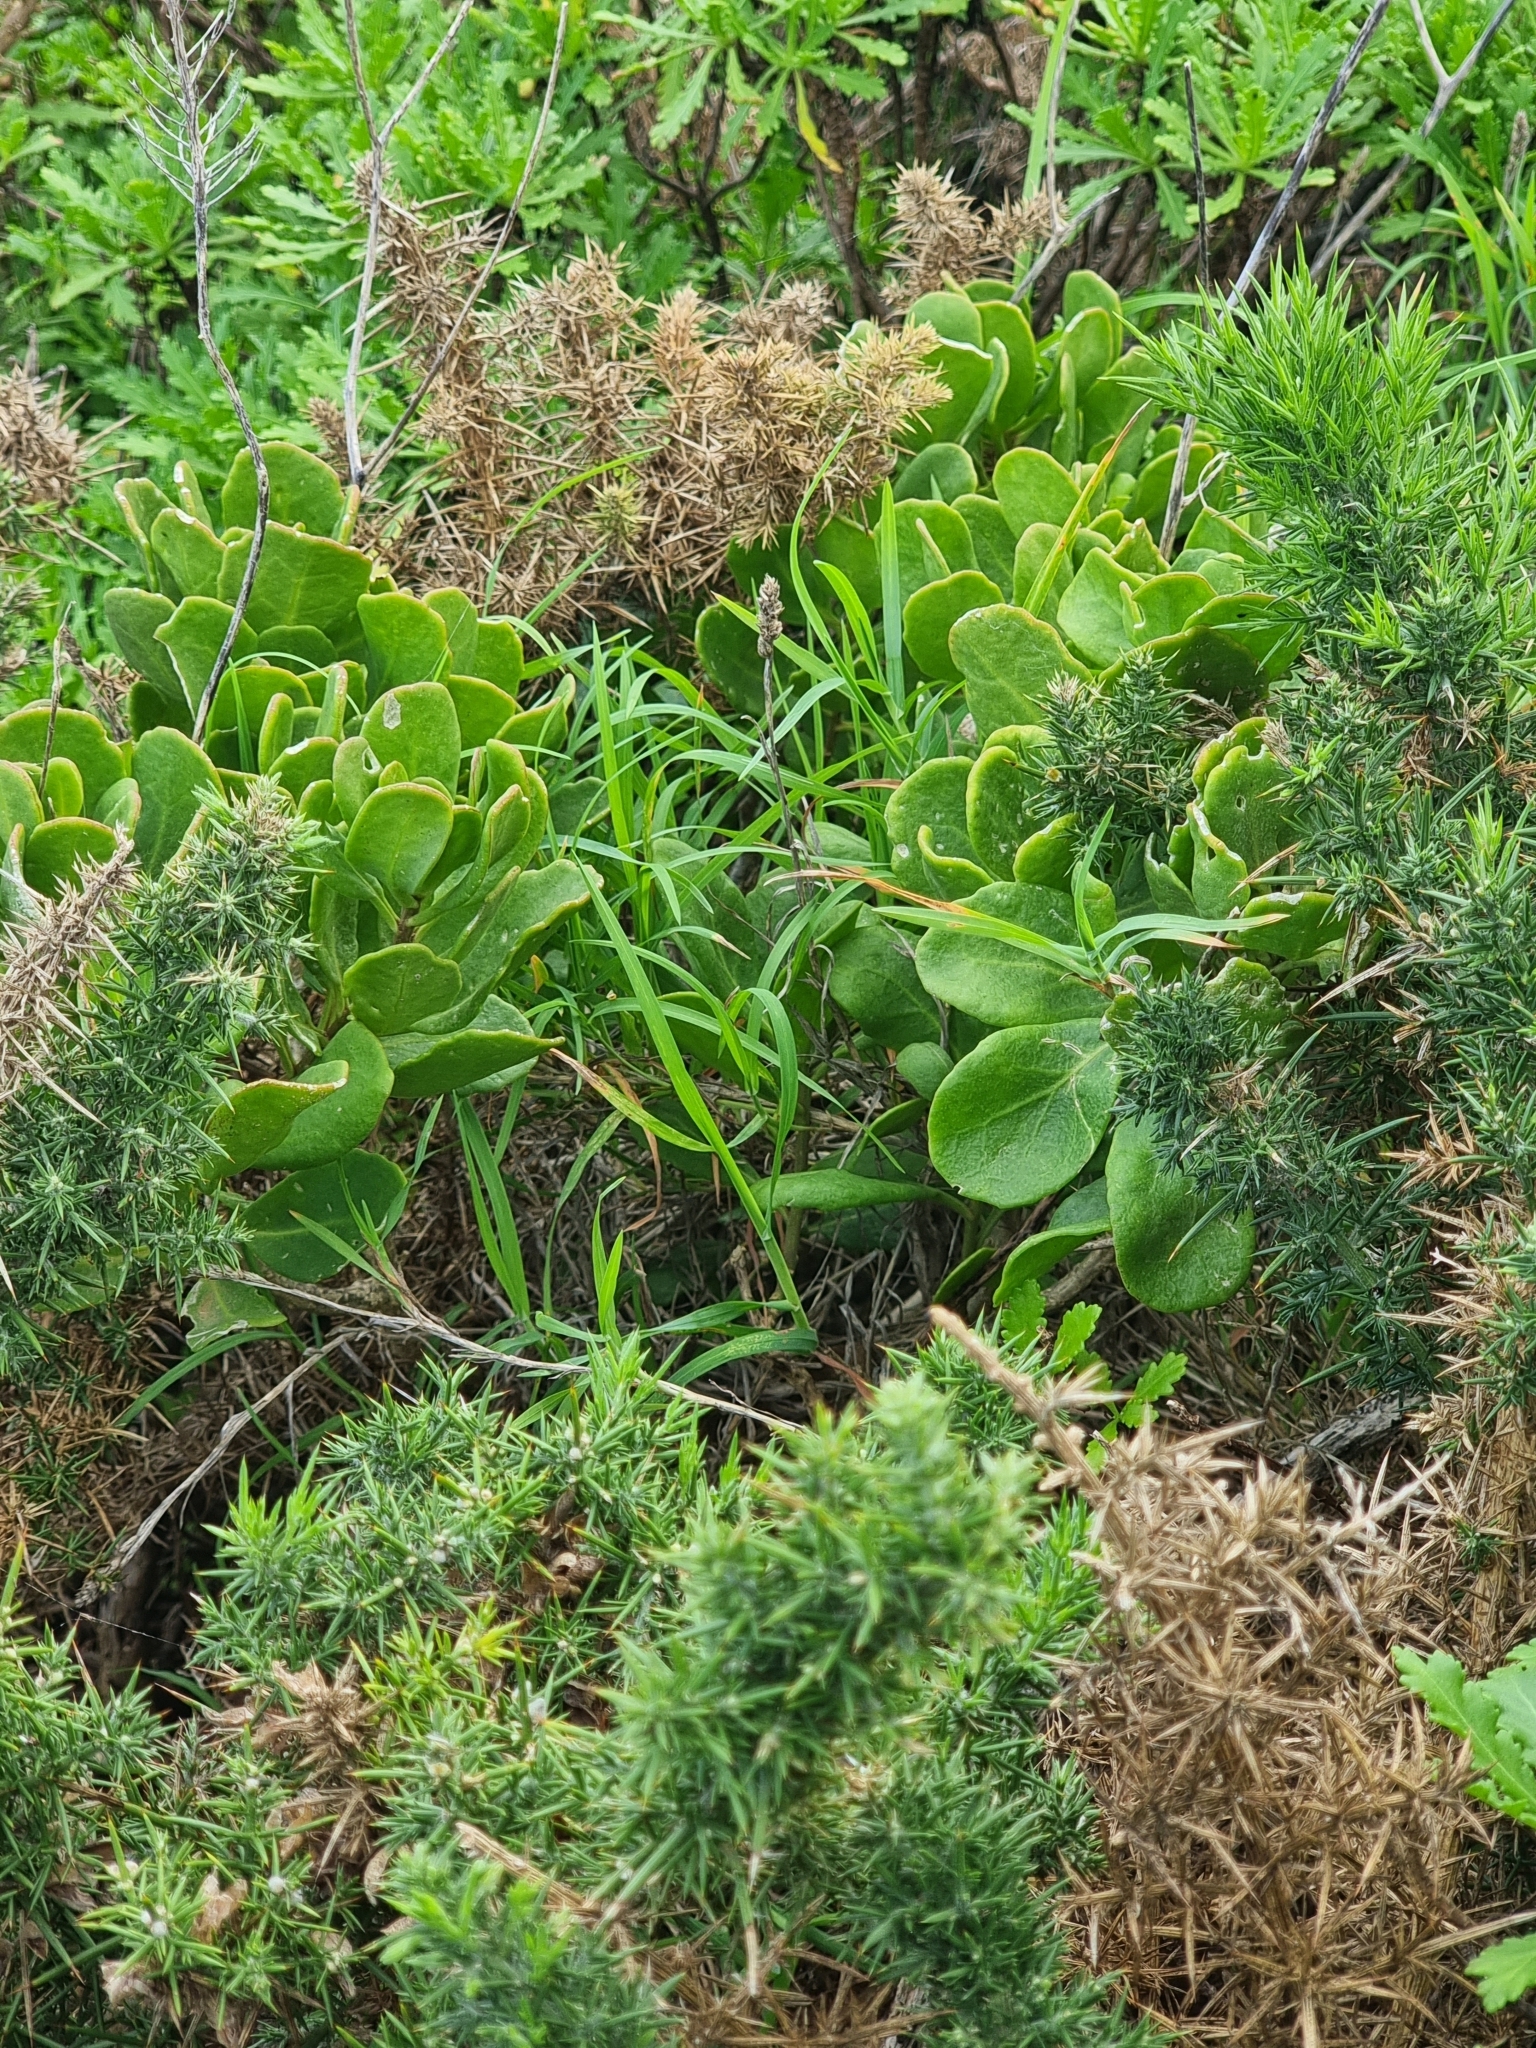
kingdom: Plantae
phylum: Tracheophyta
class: Magnoliopsida
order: Brassicales
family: Brassicaceae
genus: Sinapidendron
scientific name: Sinapidendron sempervivifolium
